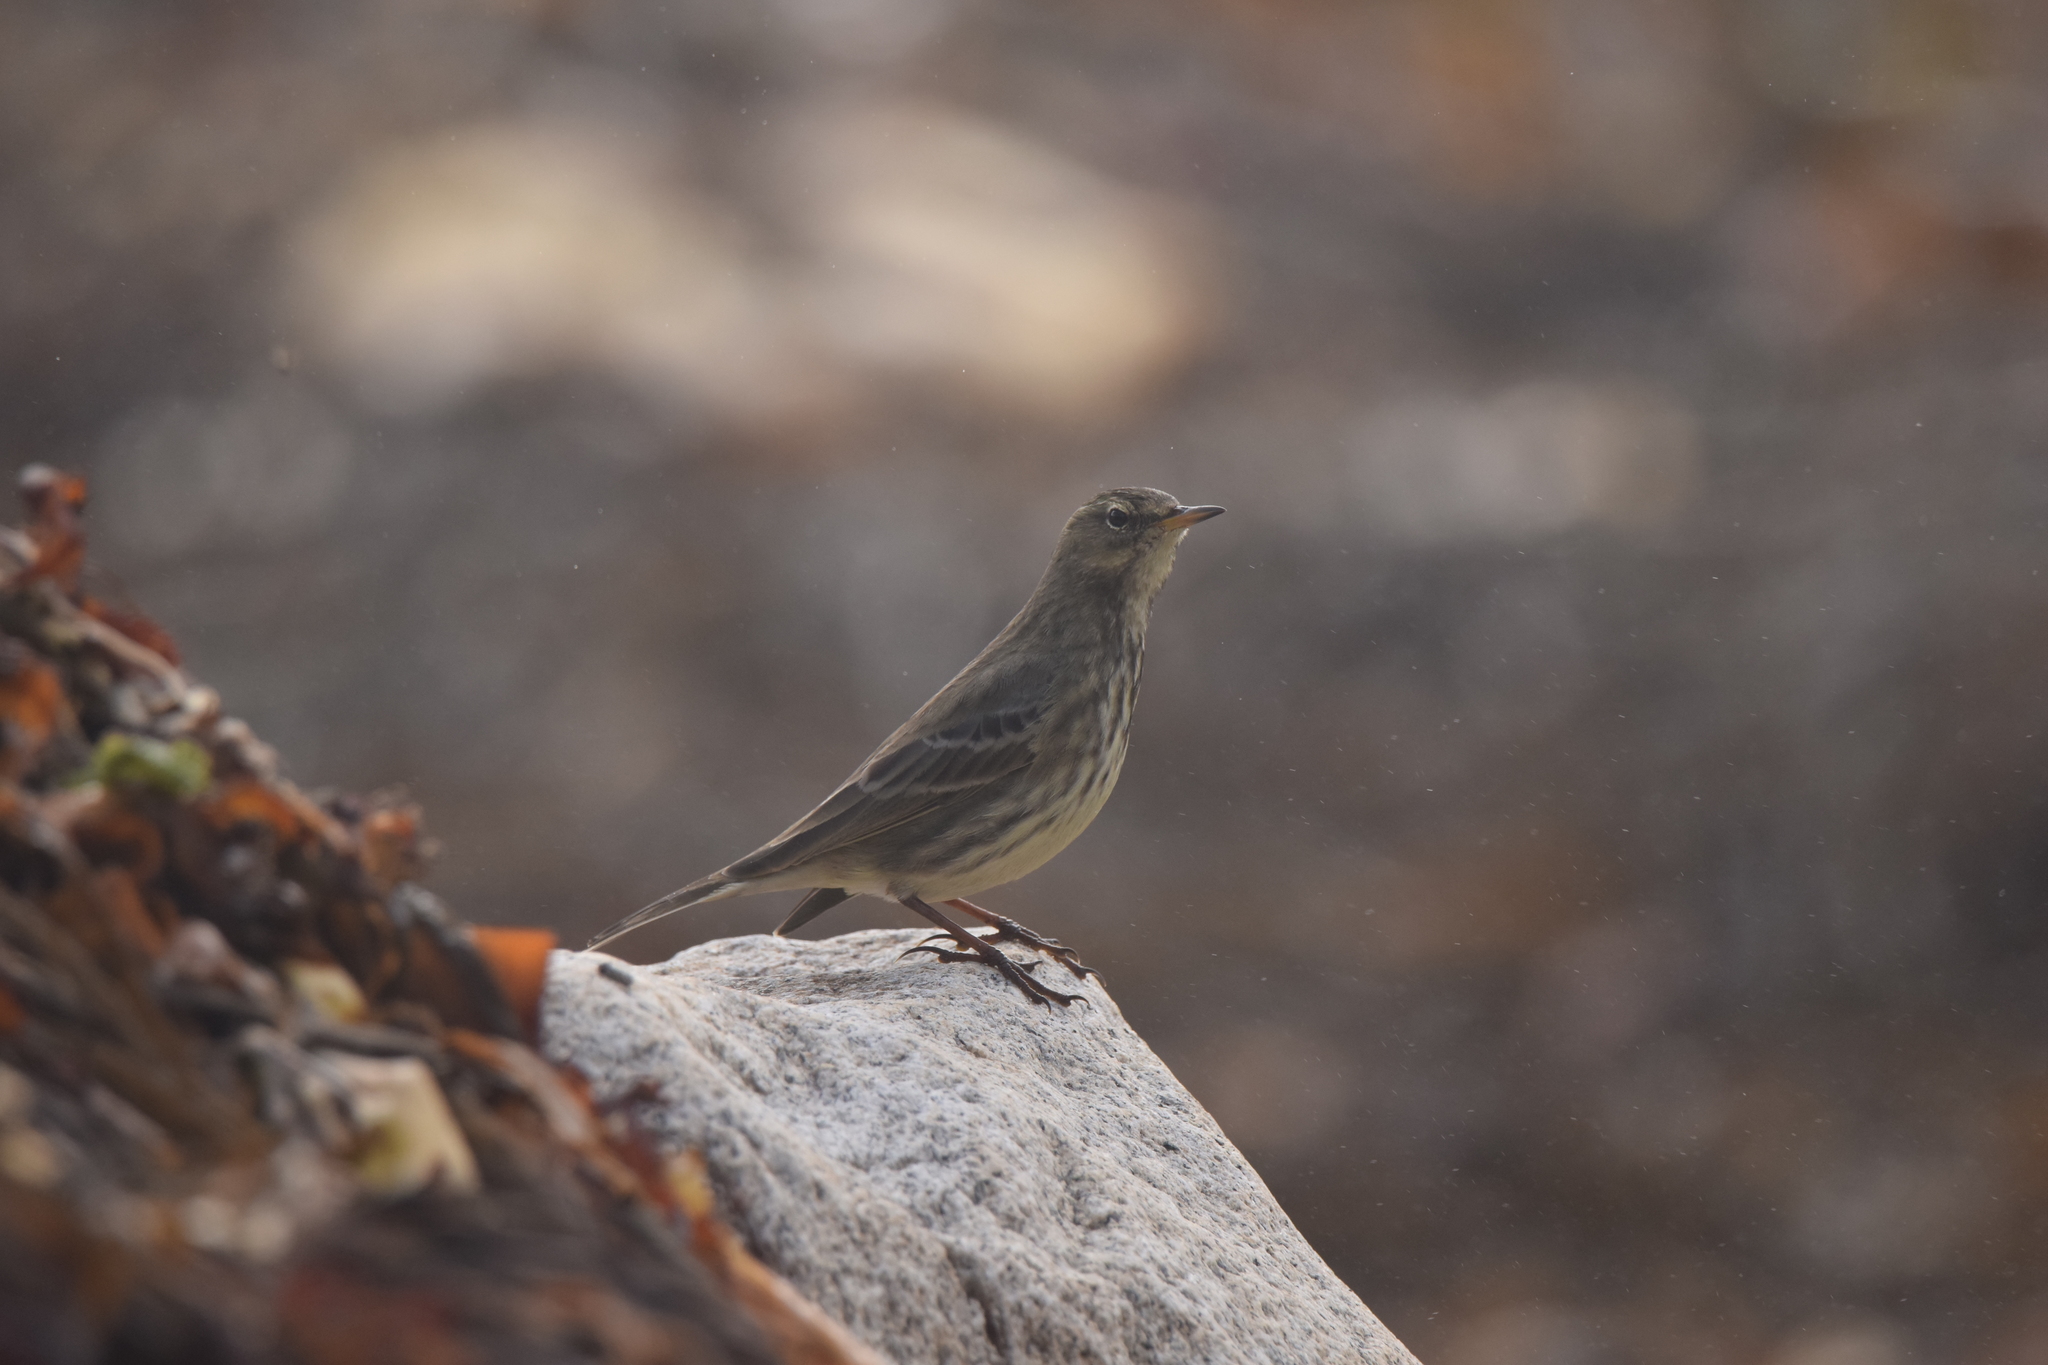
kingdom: Animalia
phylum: Chordata
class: Aves
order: Passeriformes
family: Motacillidae
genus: Anthus
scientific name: Anthus petrosus
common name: Eurasian rock pipit
